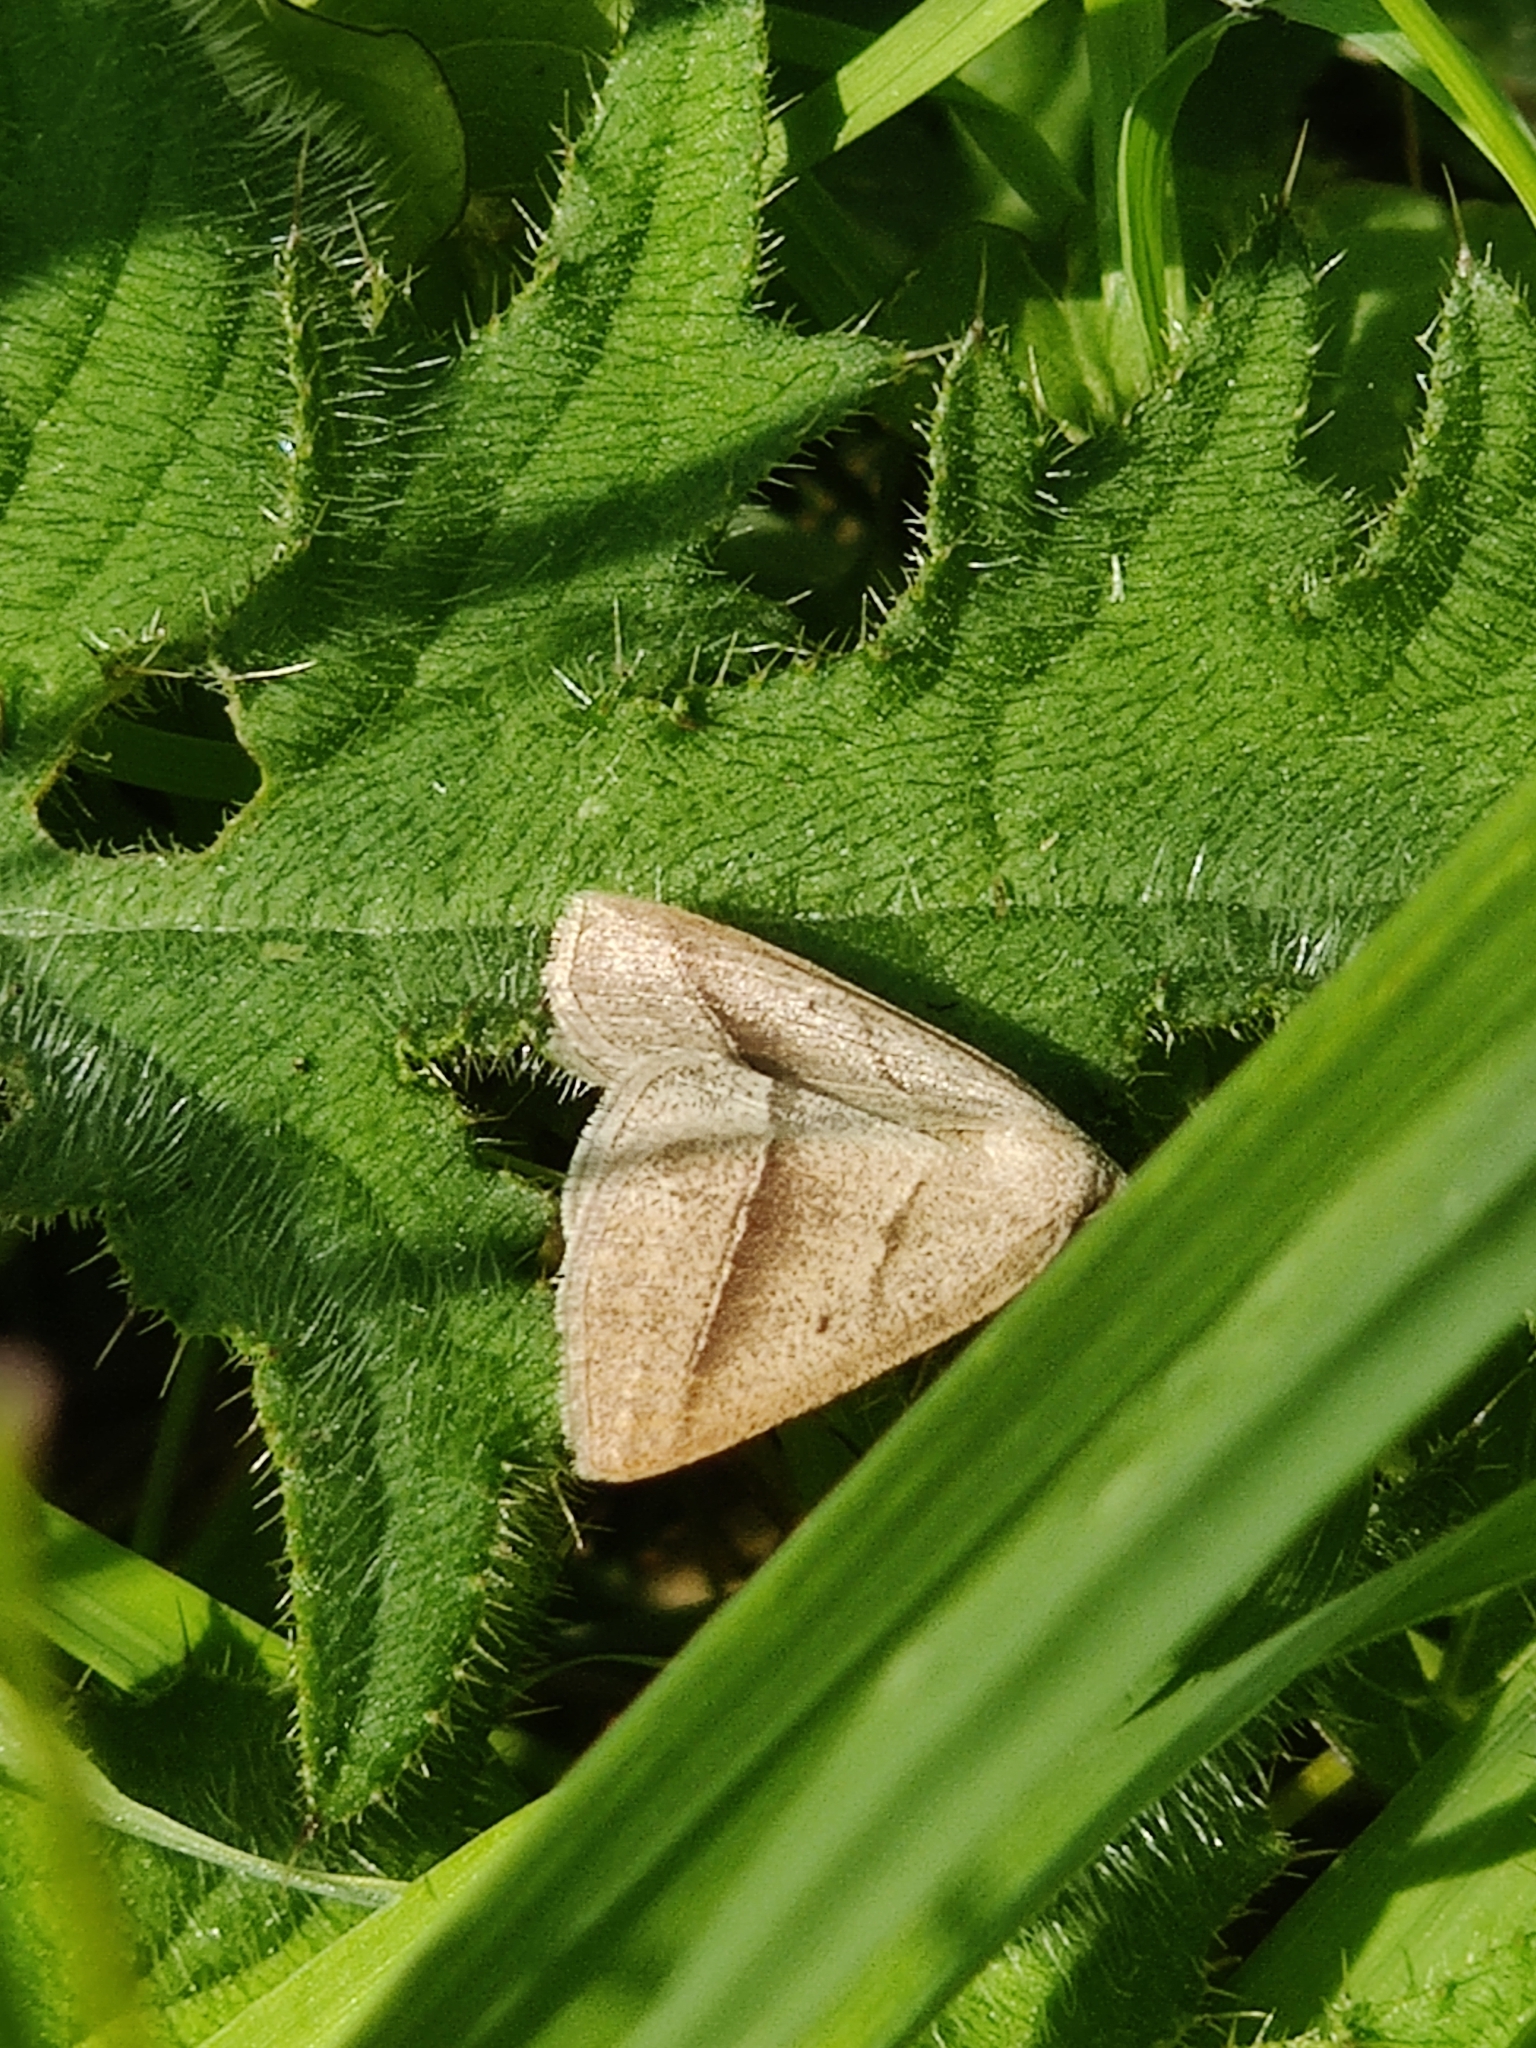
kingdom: Animalia
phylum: Arthropoda
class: Insecta
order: Lepidoptera
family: Pterophoridae
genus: Pterophorus
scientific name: Pterophorus Petrophora chlorosata
